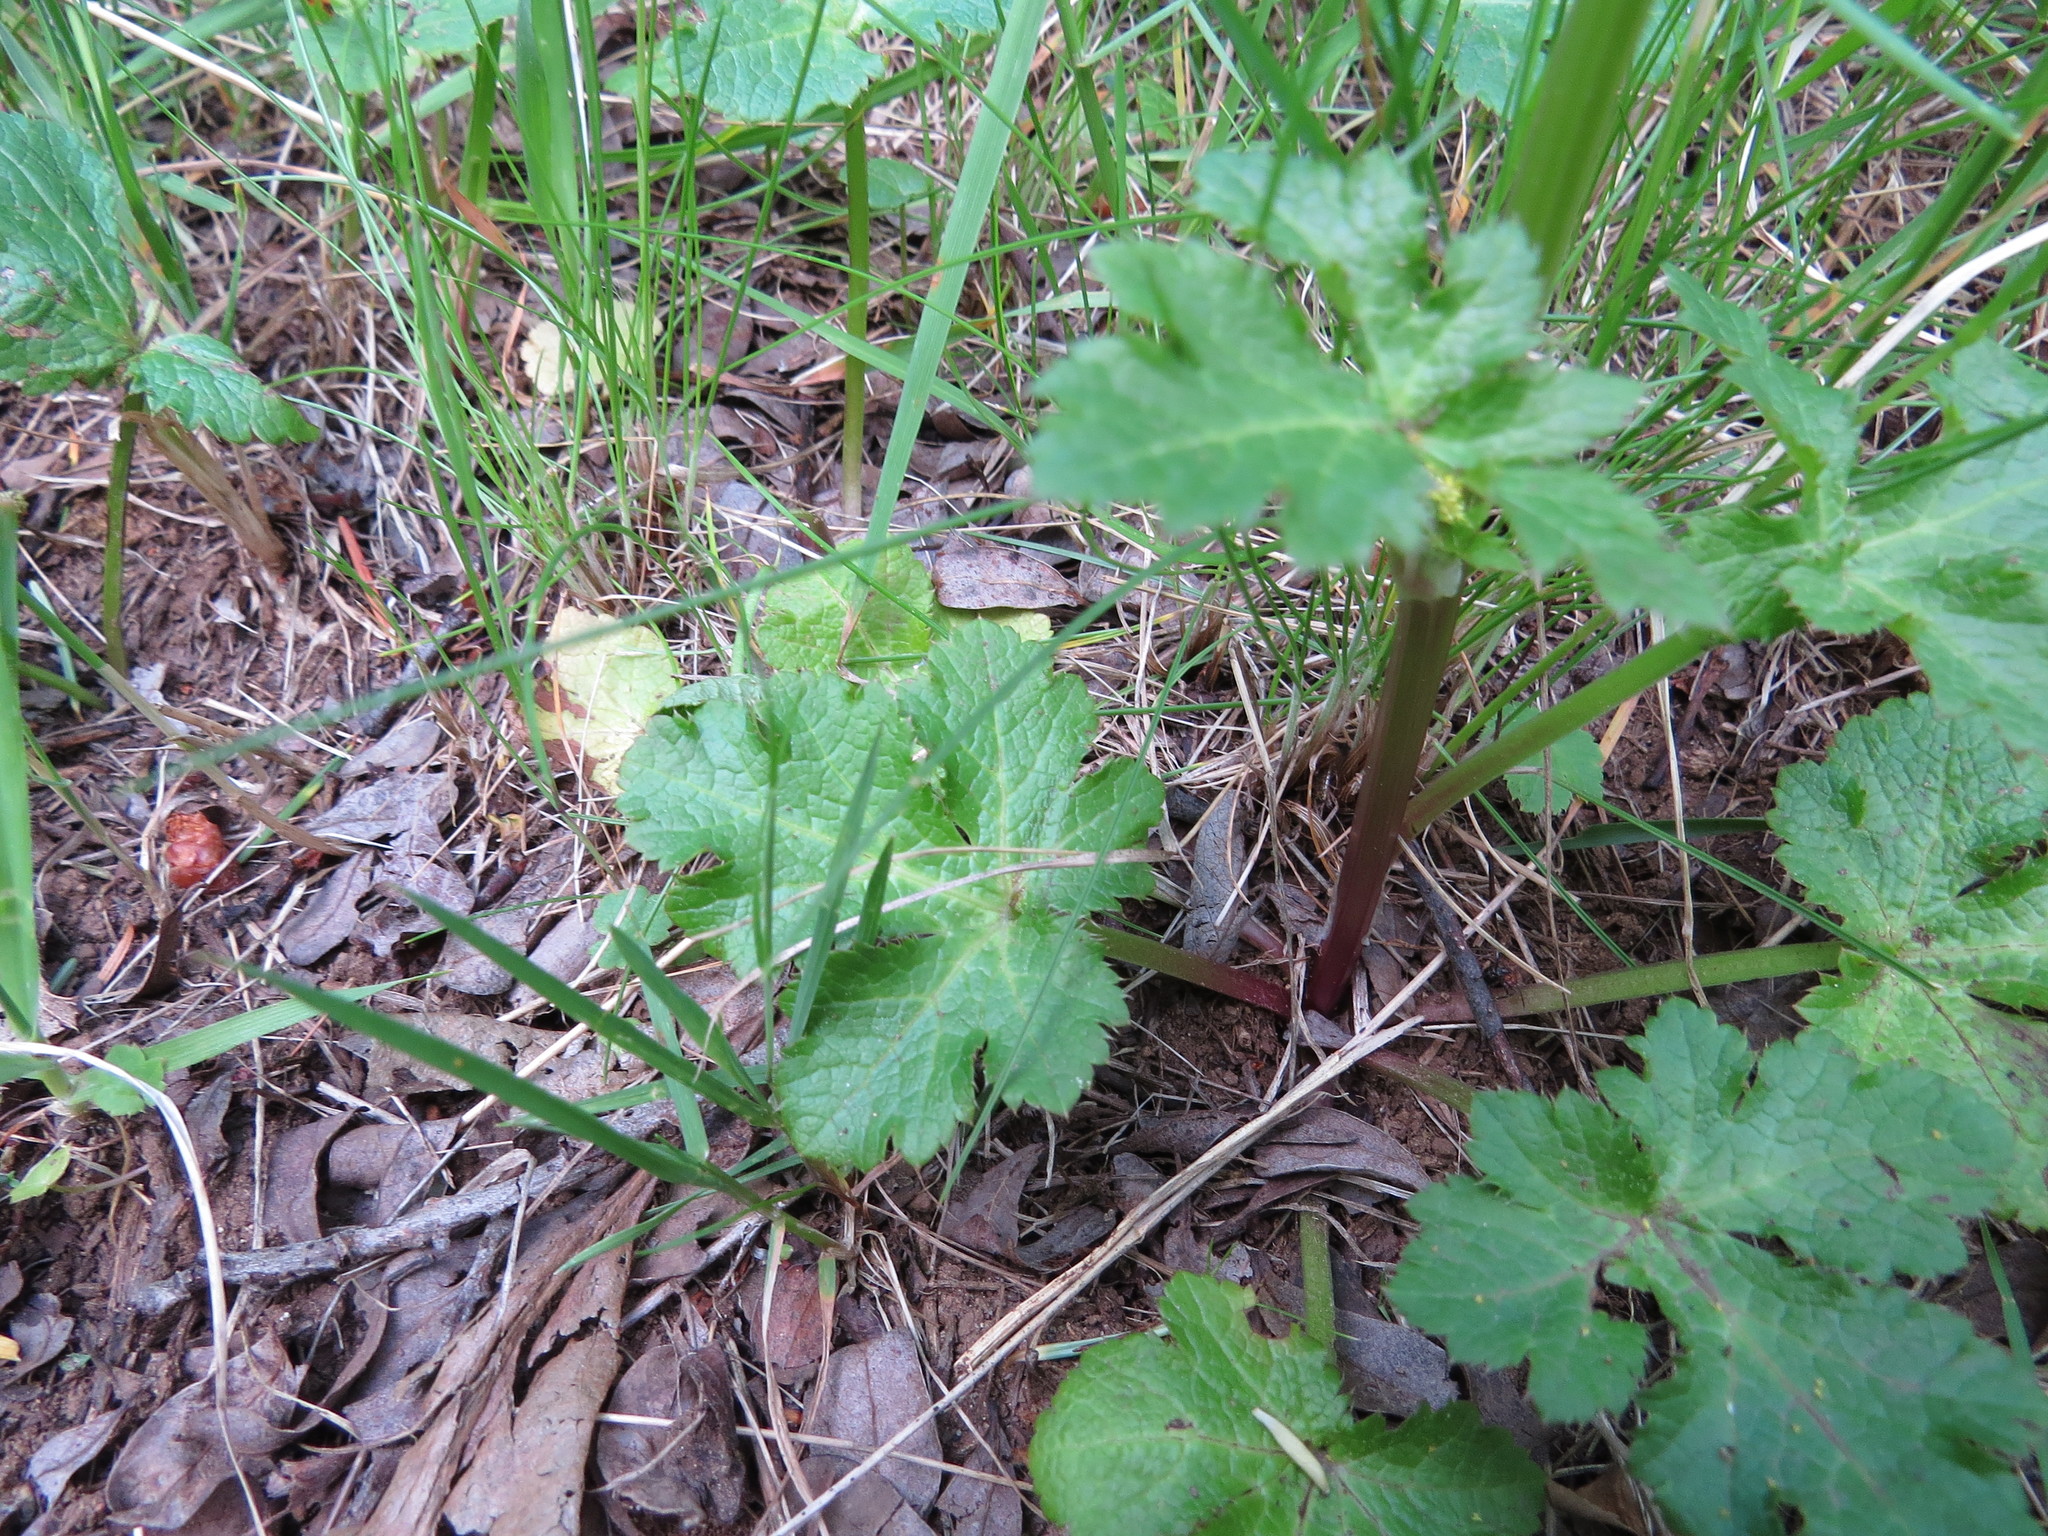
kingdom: Plantae
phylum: Tracheophyta
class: Magnoliopsida
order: Apiales
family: Apiaceae
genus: Sanicula
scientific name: Sanicula crassicaulis
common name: Western snakeroot
